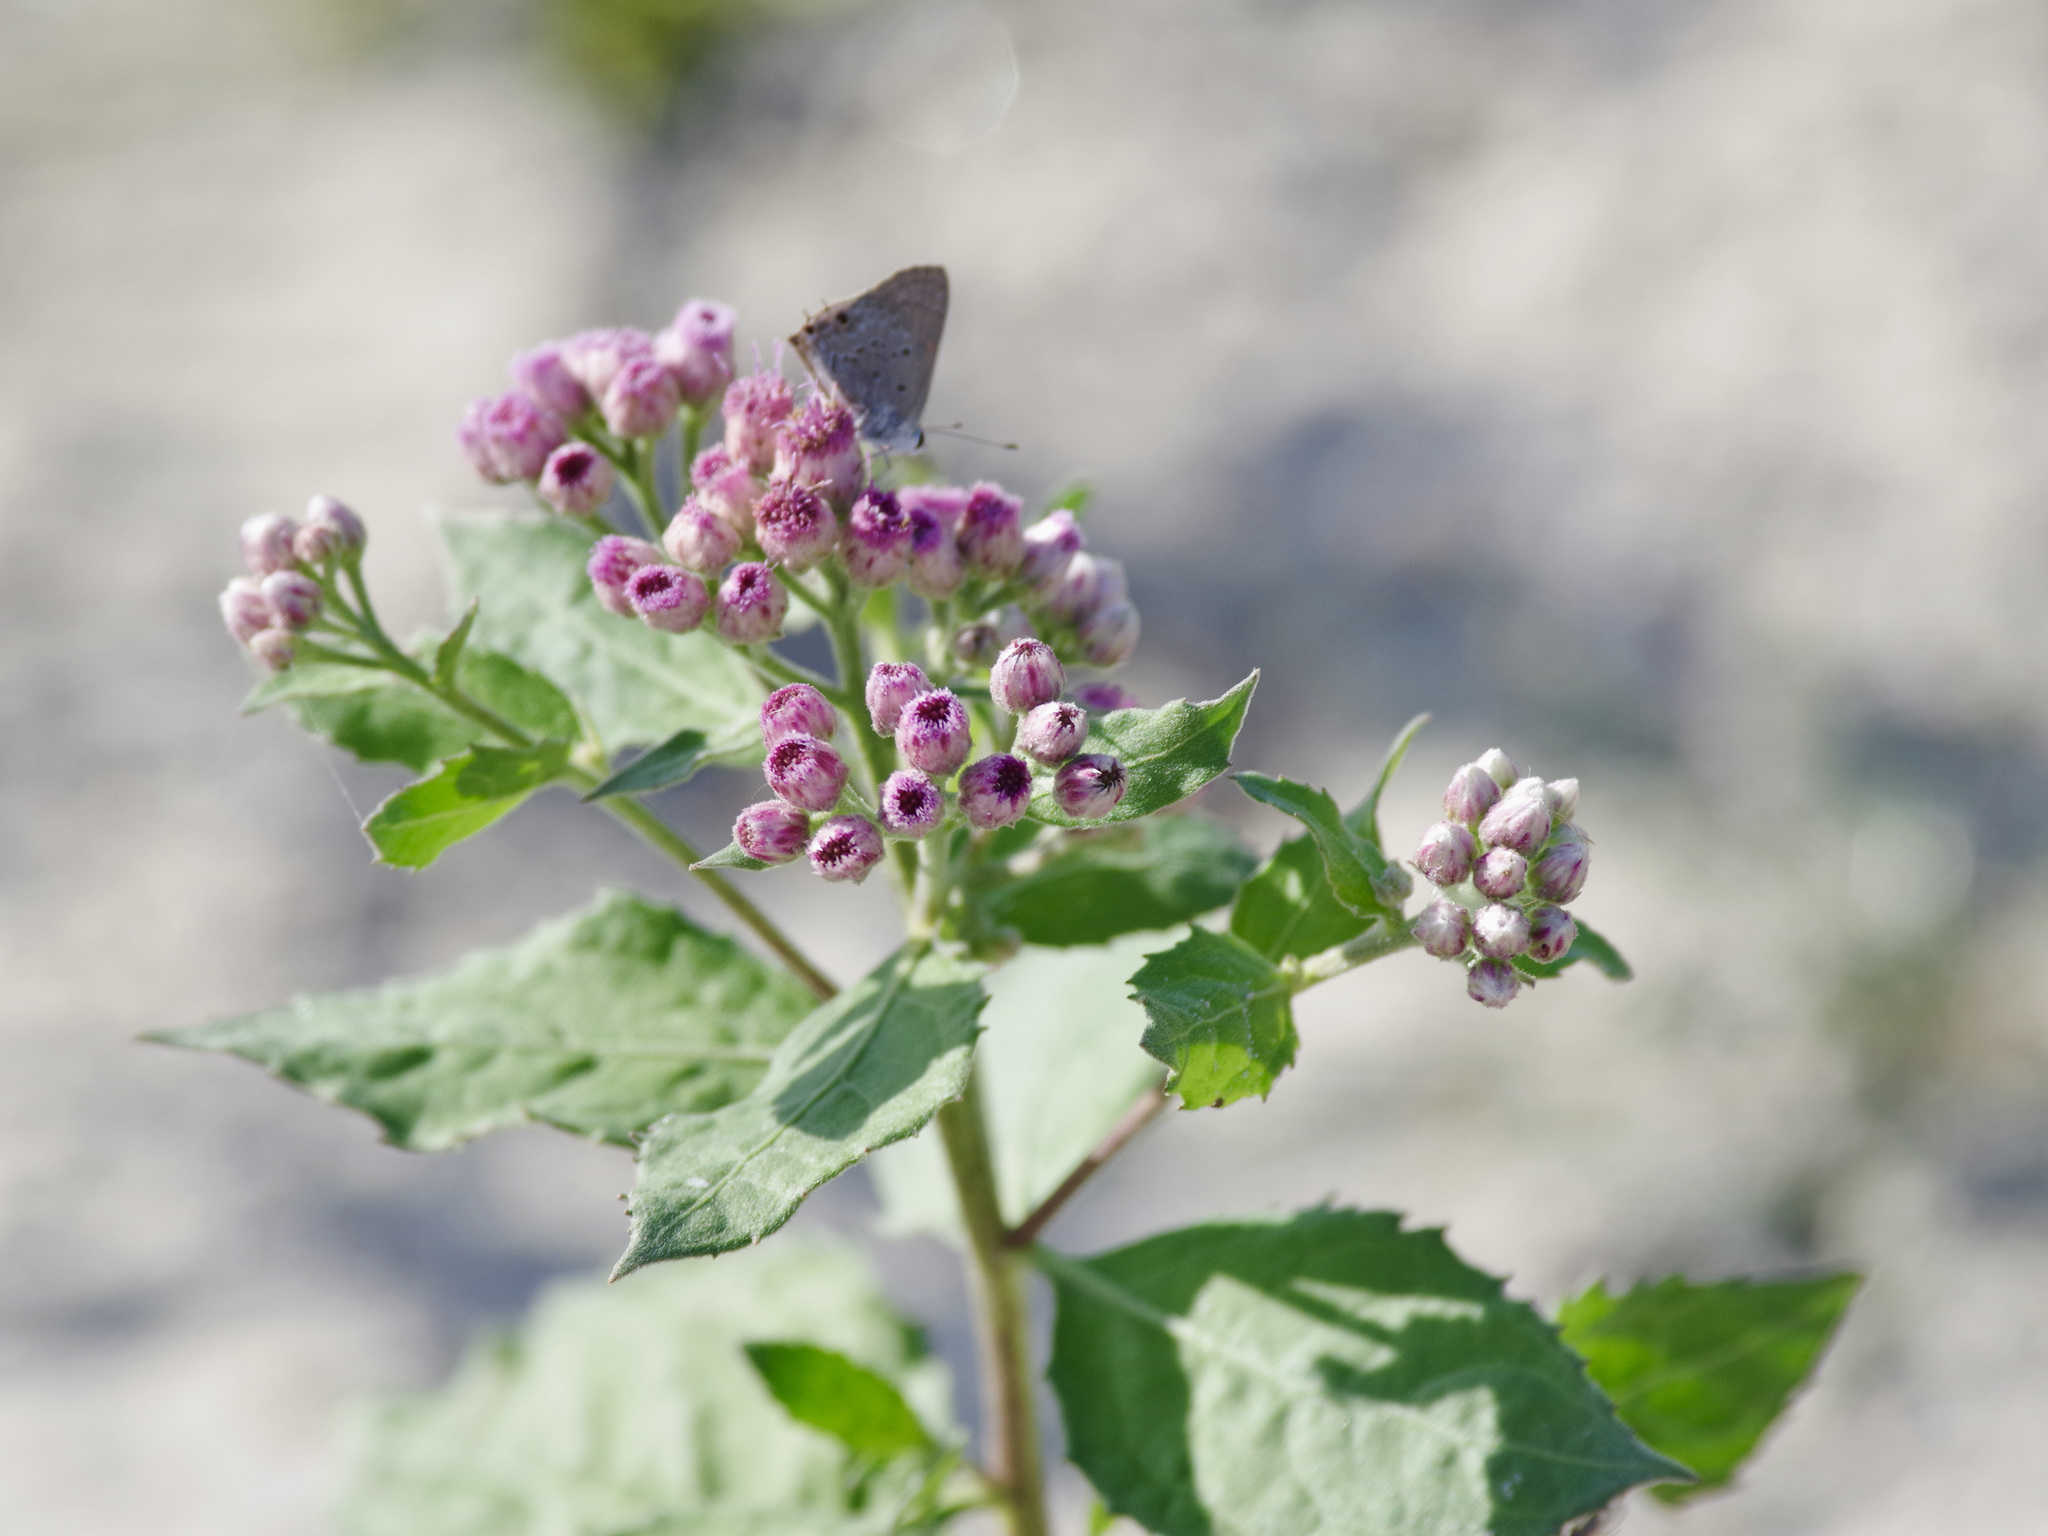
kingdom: Plantae
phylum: Tracheophyta
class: Magnoliopsida
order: Asterales
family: Asteraceae
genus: Pluchea
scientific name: Pluchea odorata
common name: Saltmarsh fleabane
